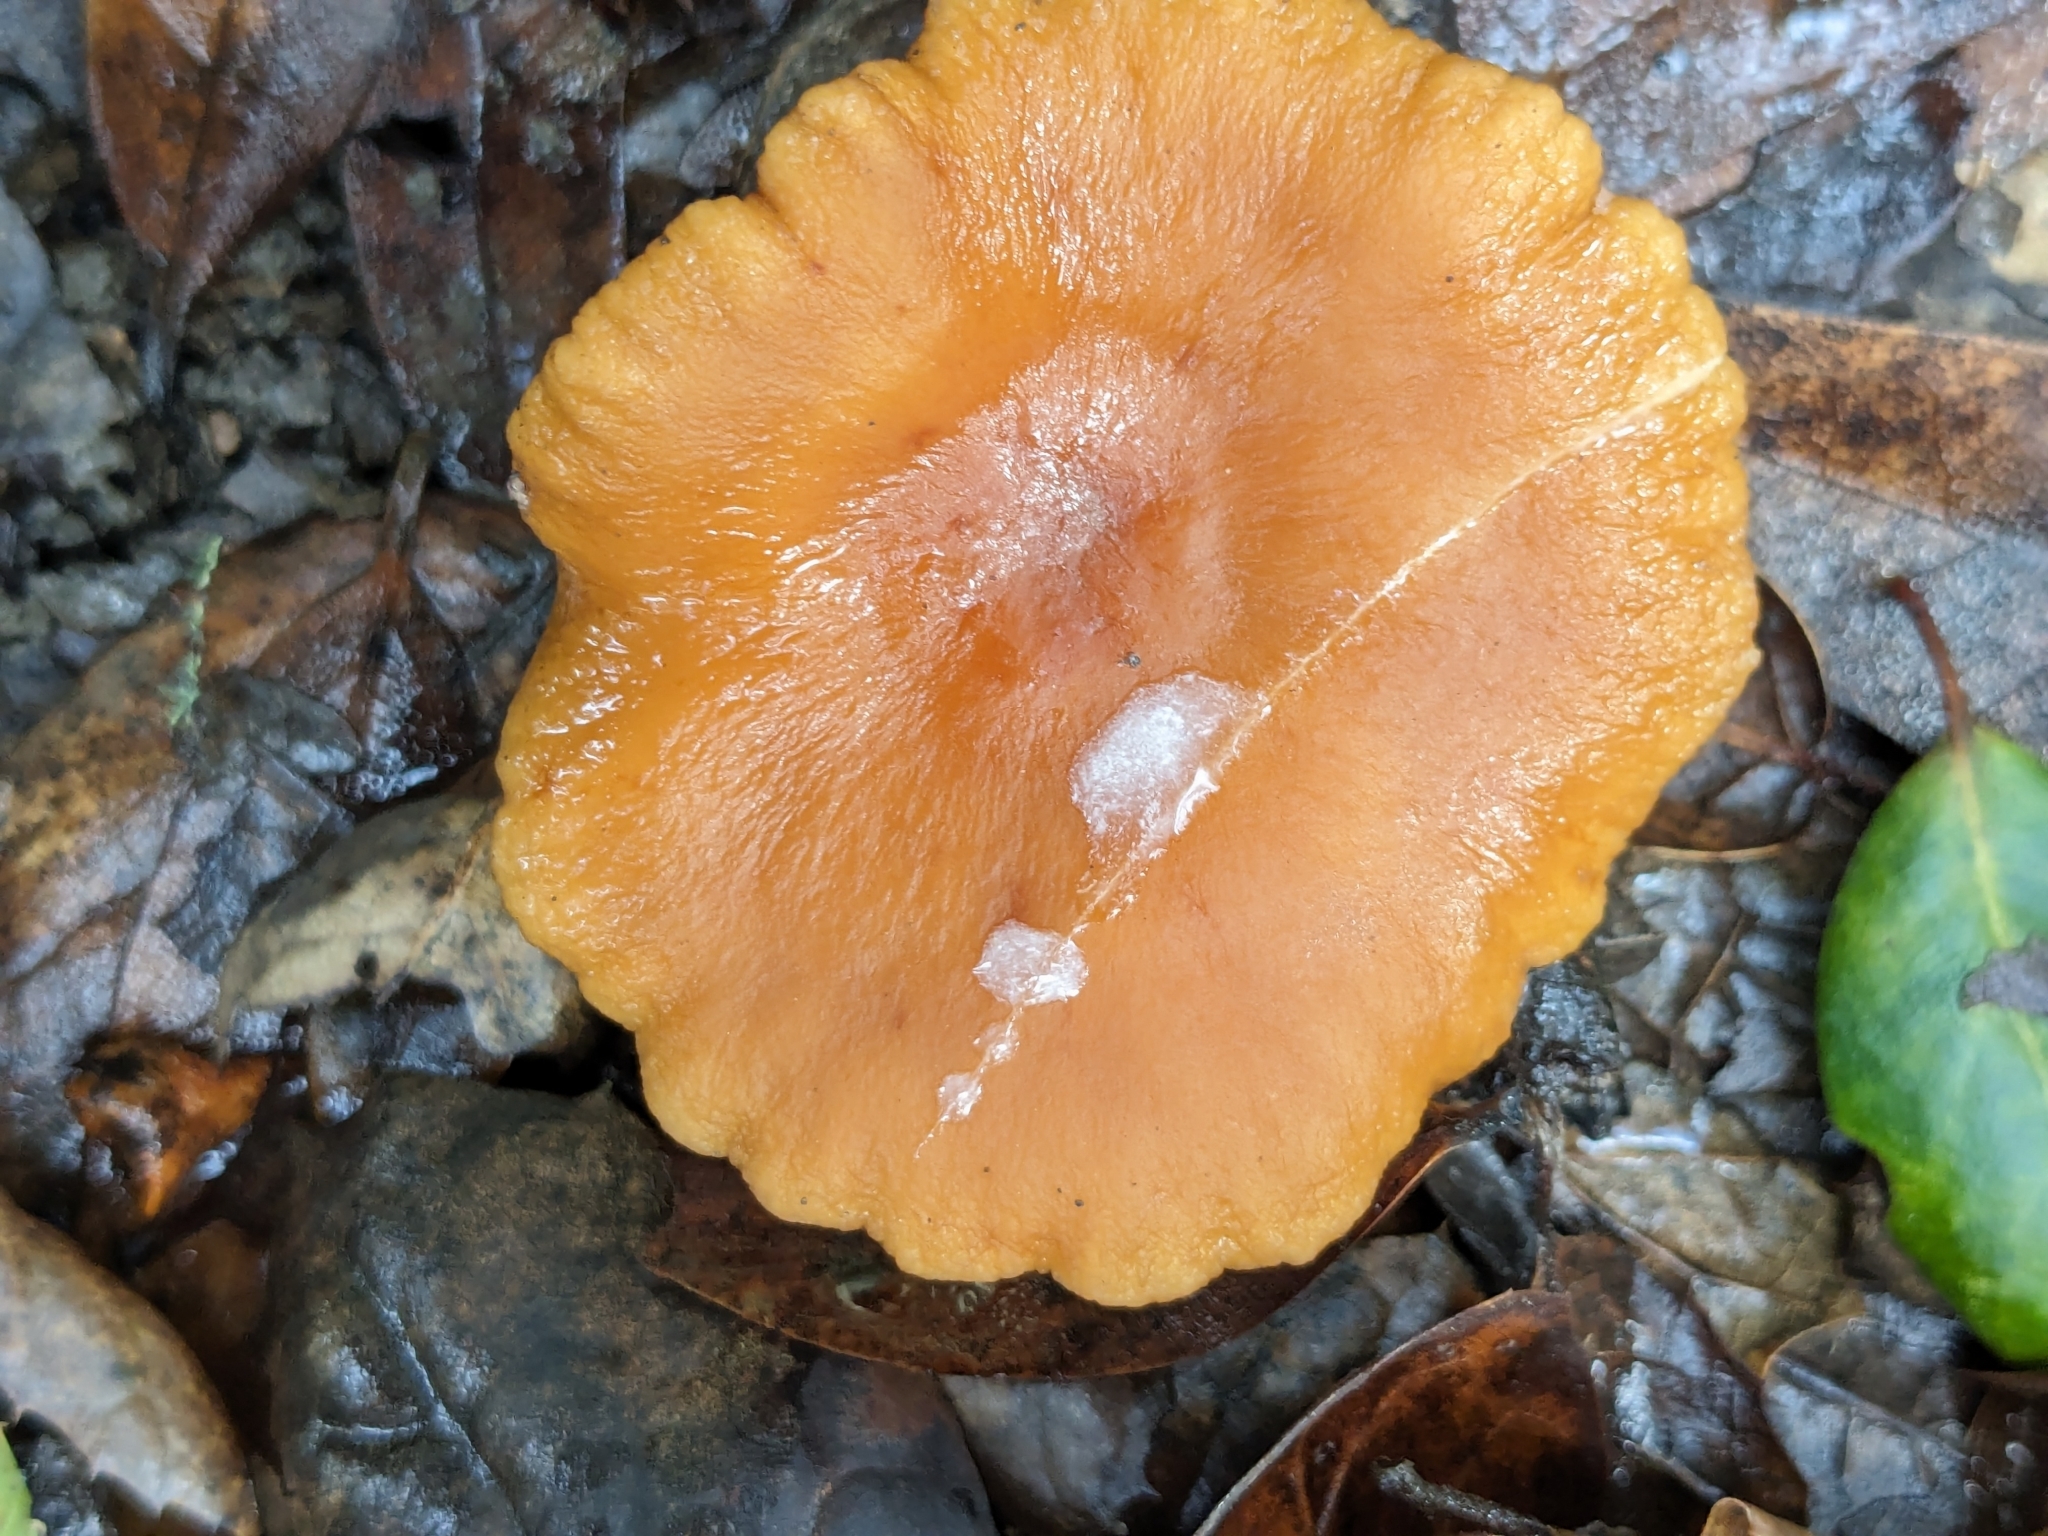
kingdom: Fungi
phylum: Basidiomycota
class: Agaricomycetes
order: Russulales
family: Russulaceae
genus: Lactarius
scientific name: Lactarius rubidus
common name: Candy cap
